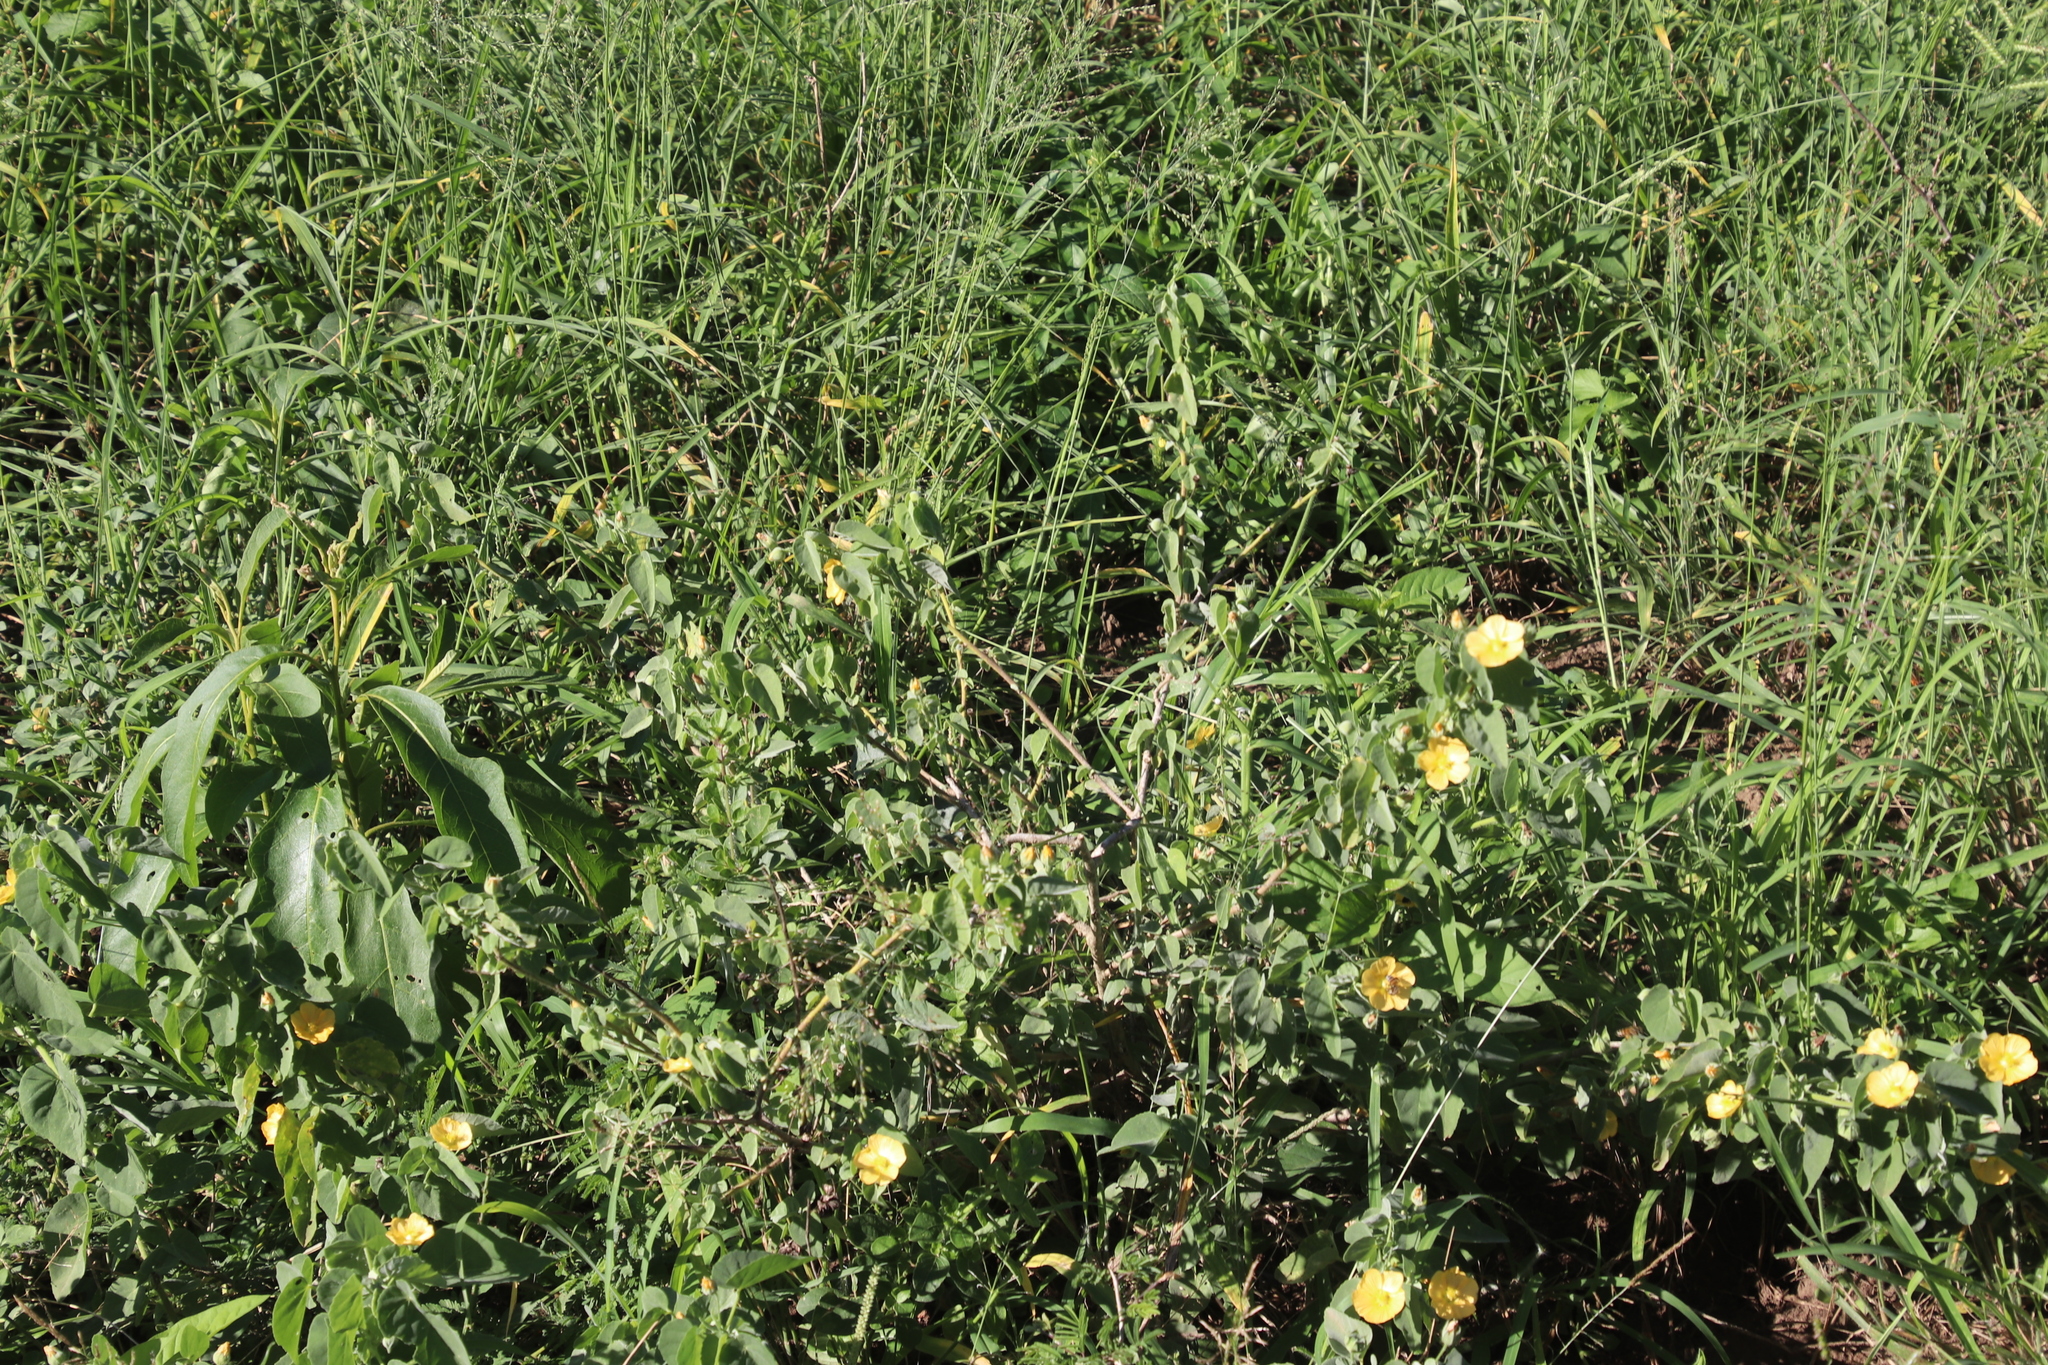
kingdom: Plantae
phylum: Tracheophyta
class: Magnoliopsida
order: Malvales
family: Malvaceae
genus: Abutilon
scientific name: Abutilon austroafricanum
